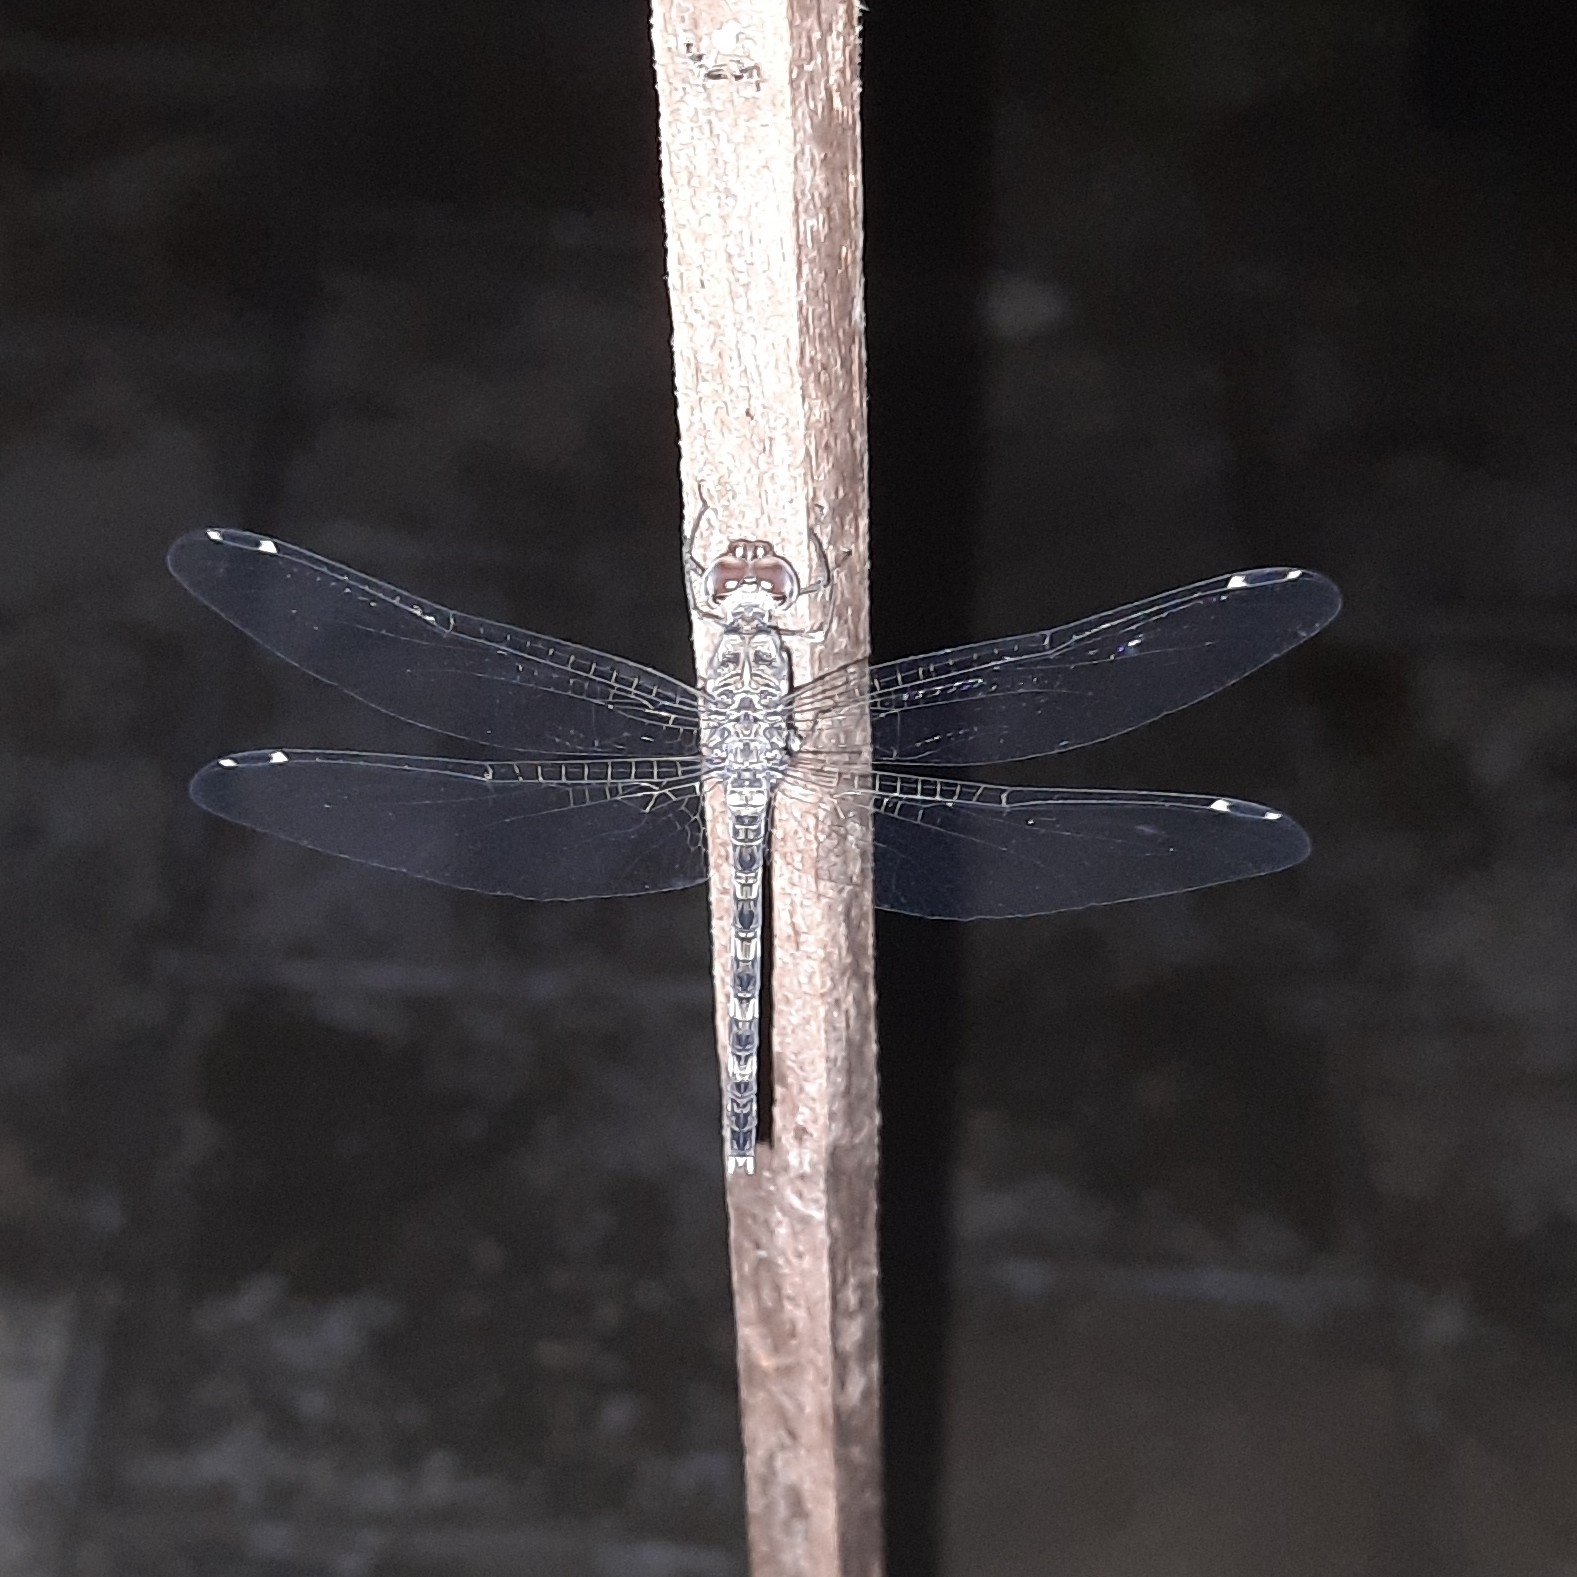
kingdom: Animalia
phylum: Arthropoda
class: Insecta
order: Odonata
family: Libellulidae
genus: Bradinopyga
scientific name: Bradinopyga geminata
